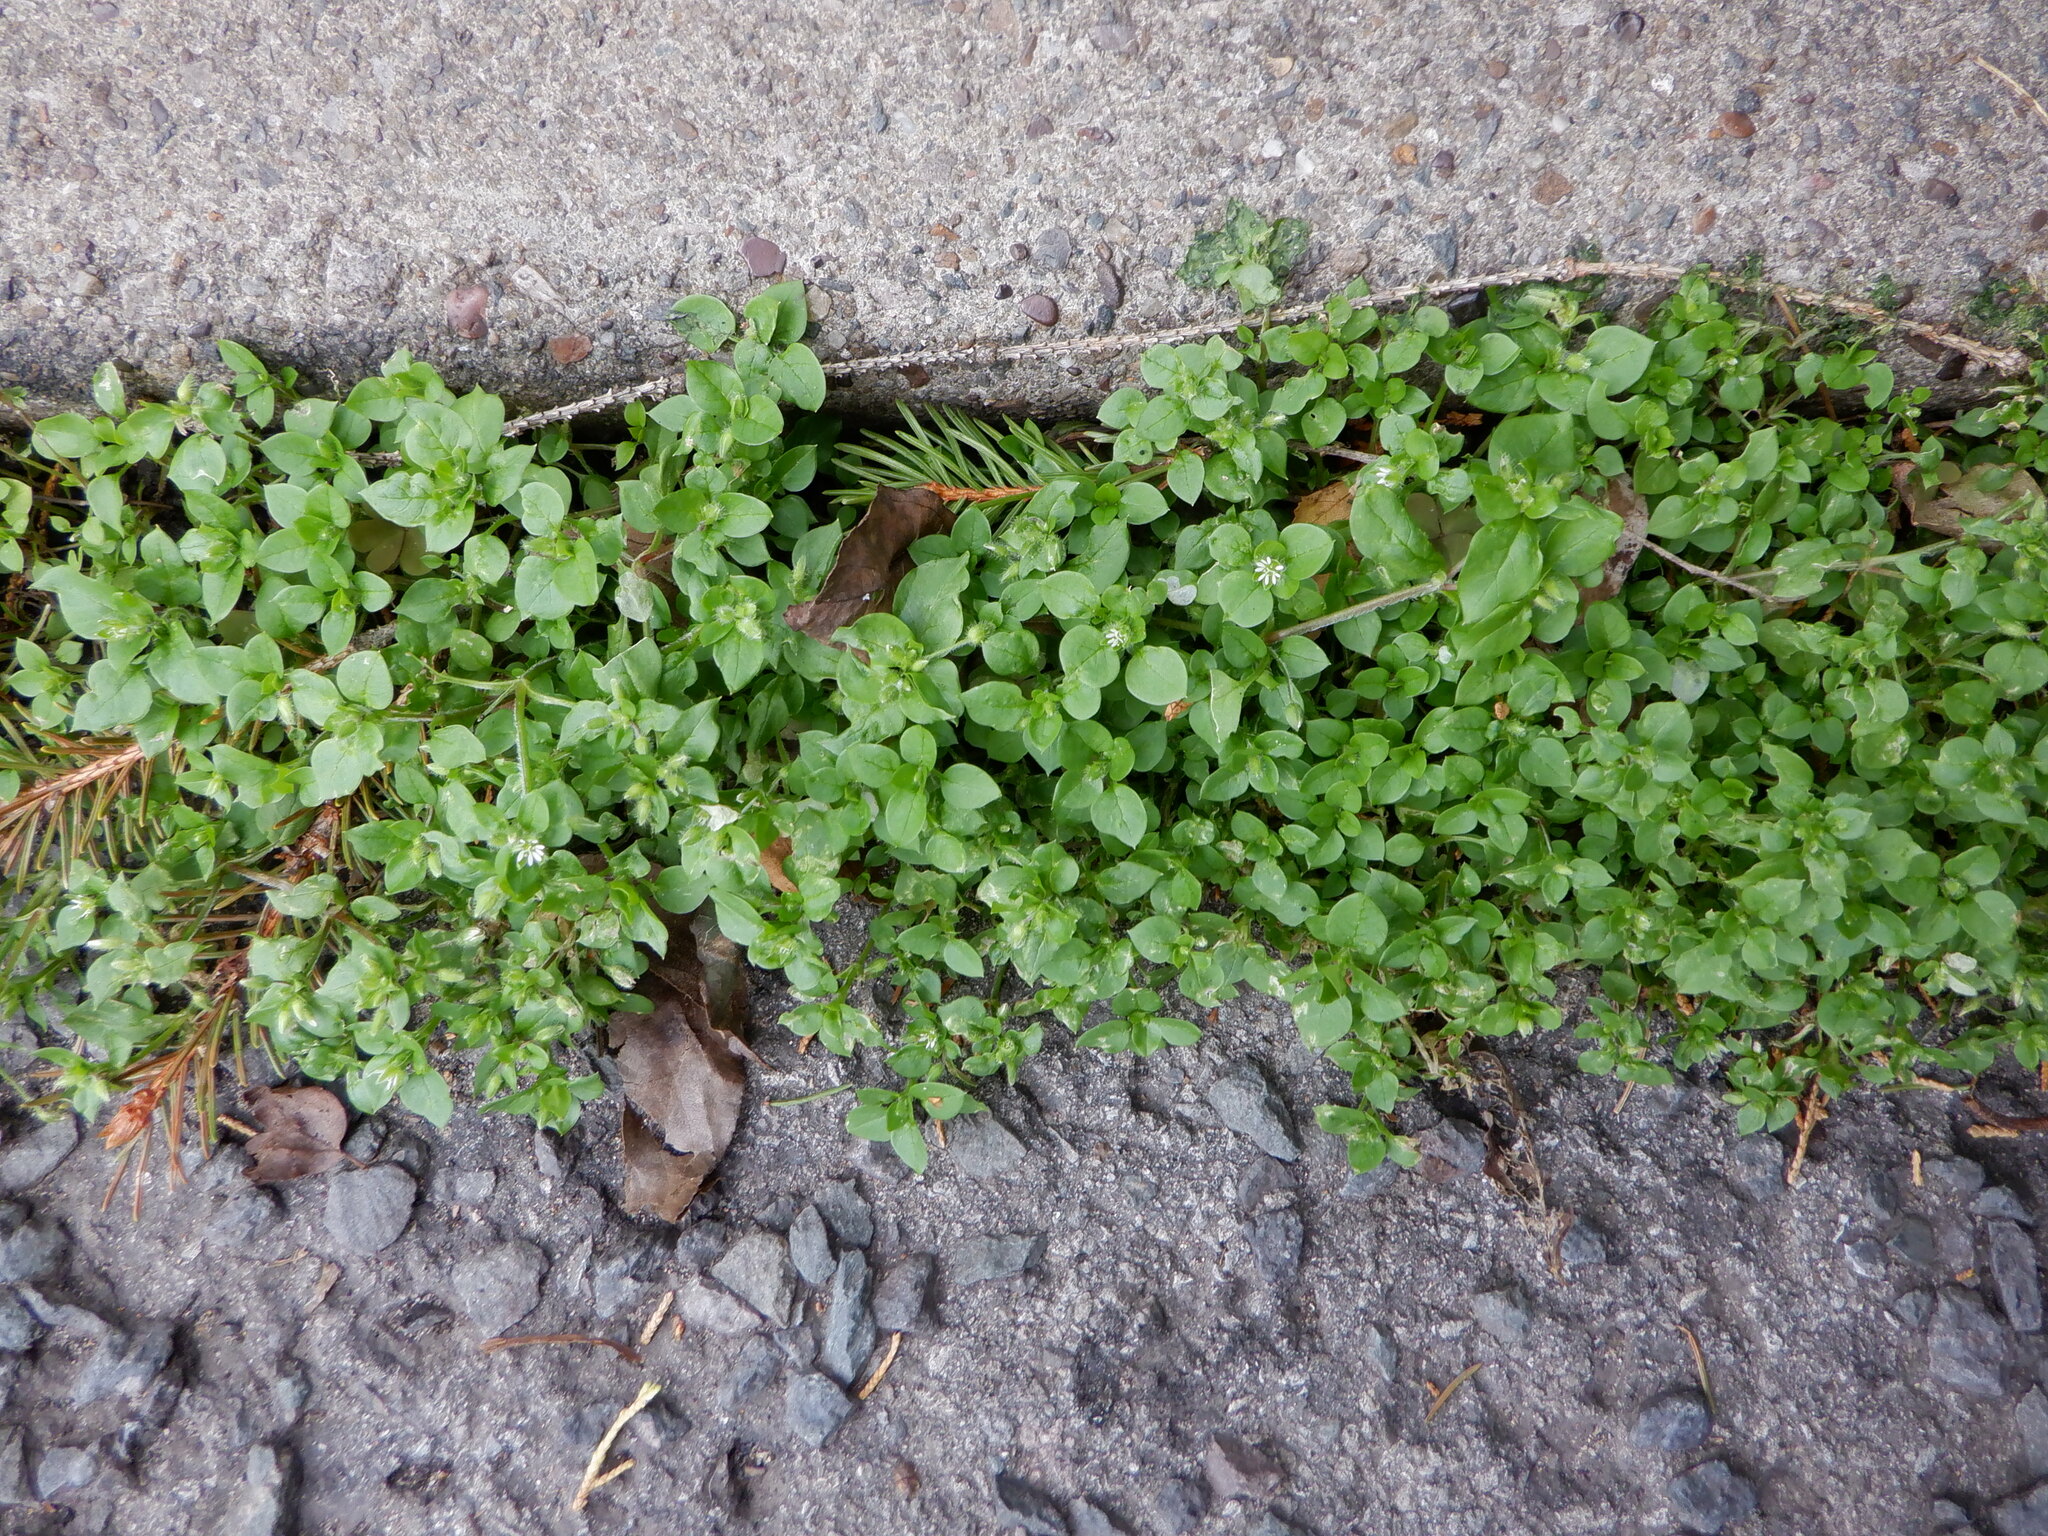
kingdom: Plantae
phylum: Tracheophyta
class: Magnoliopsida
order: Caryophyllales
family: Caryophyllaceae
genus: Stellaria
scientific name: Stellaria media
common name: Common chickweed
